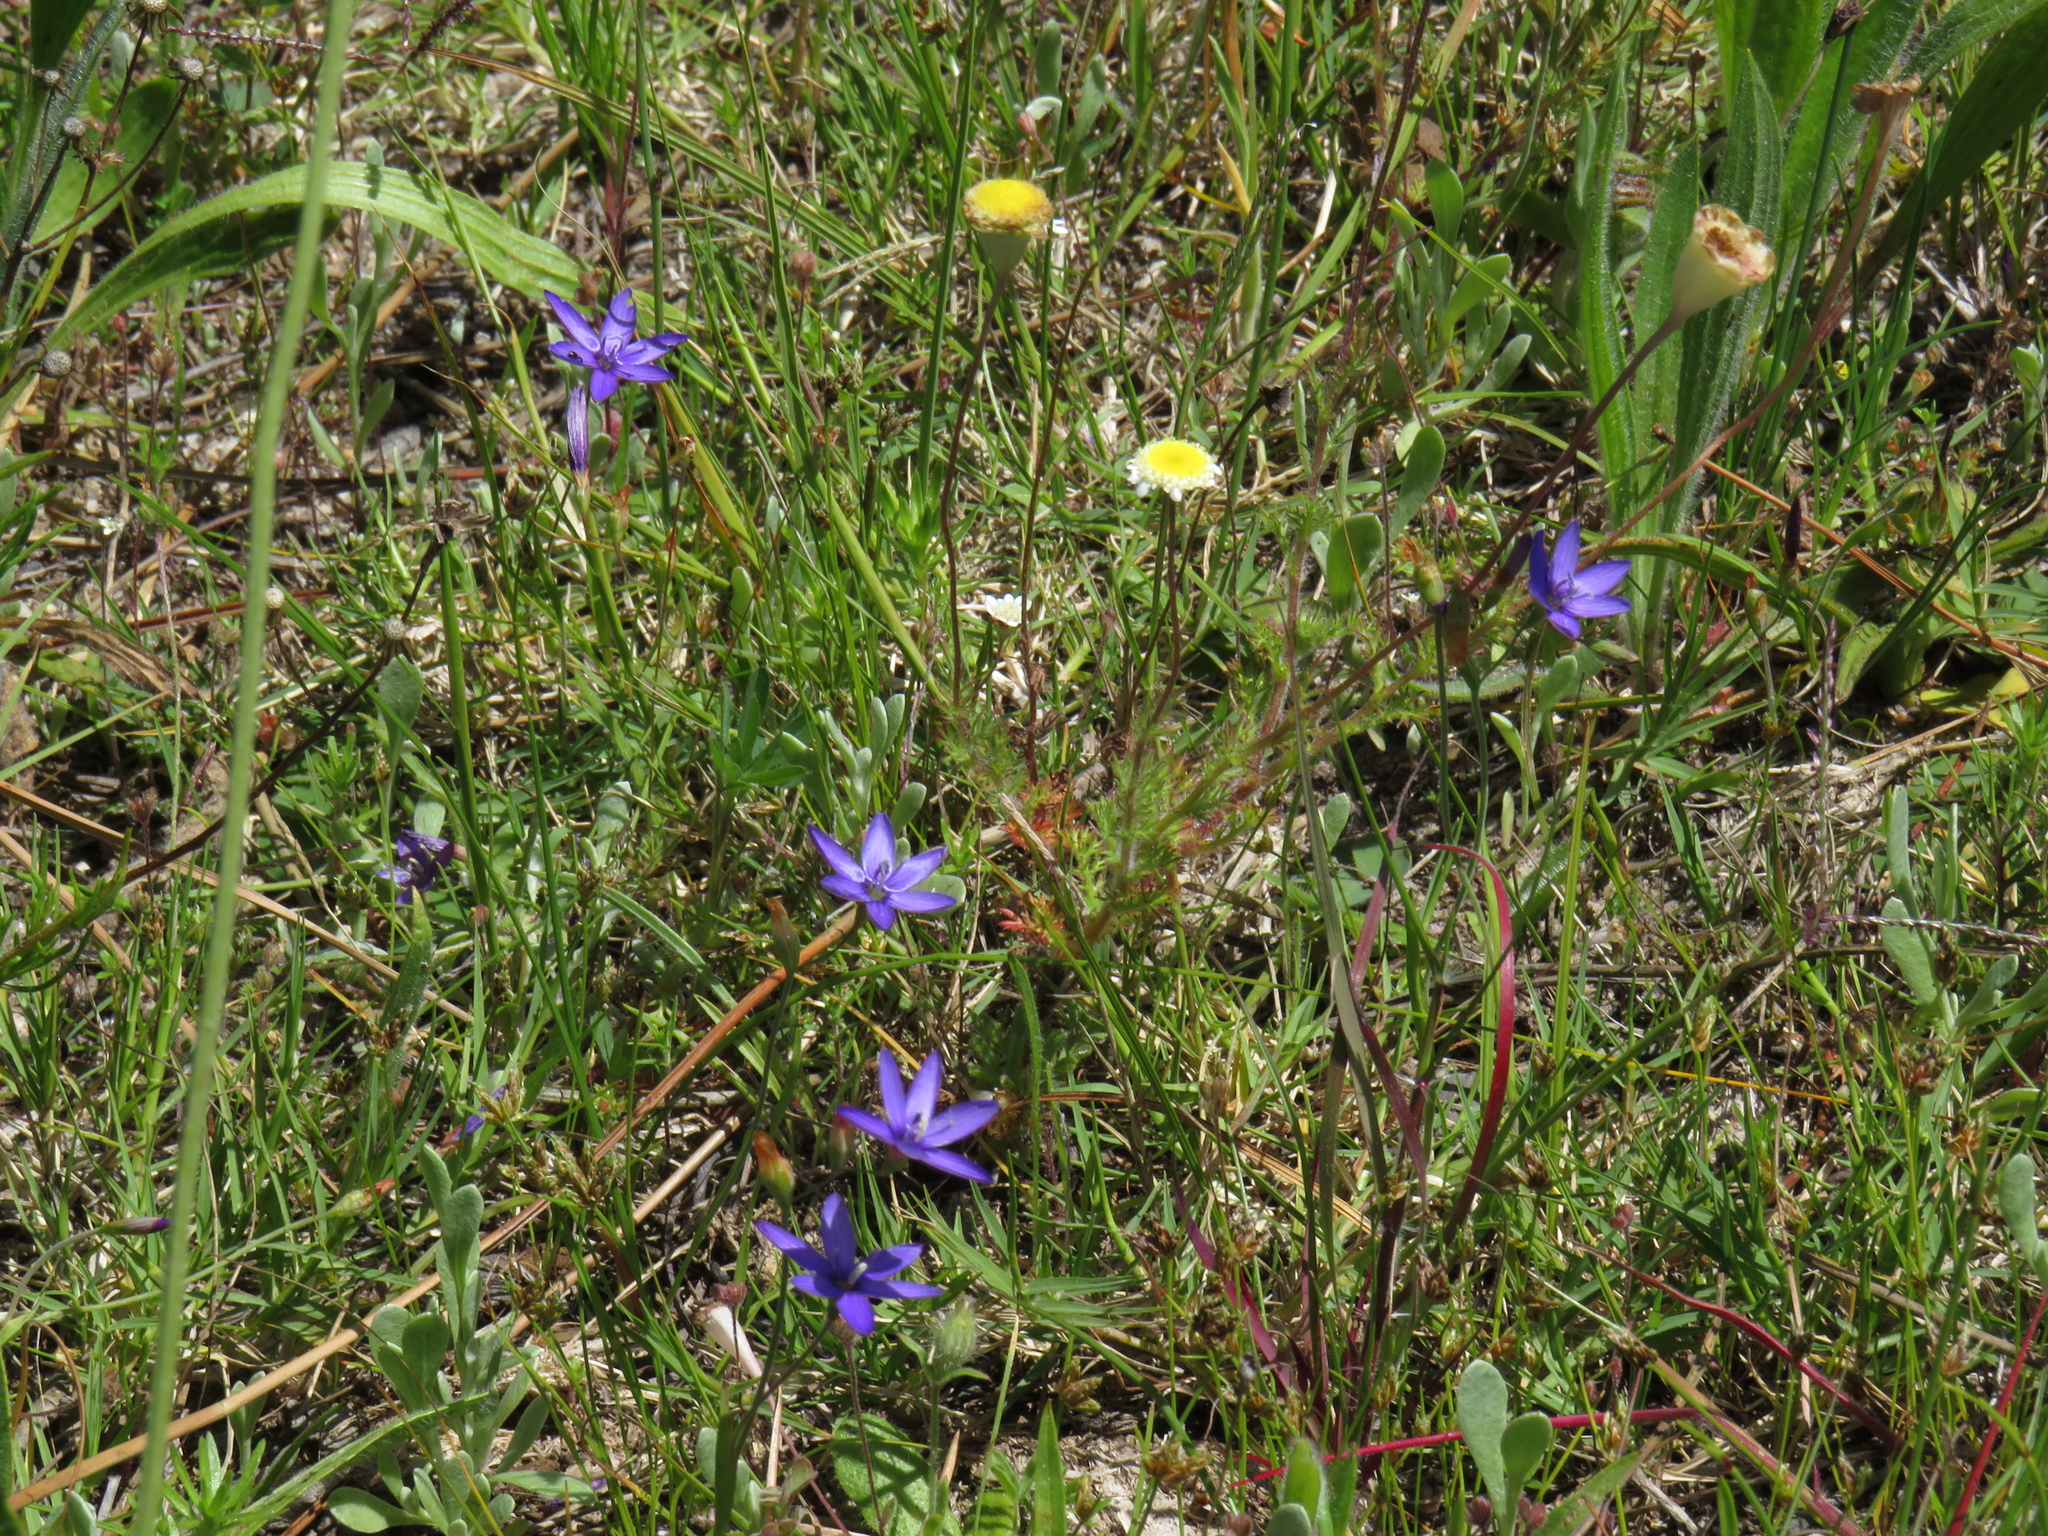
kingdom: Plantae
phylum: Tracheophyta
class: Liliopsida
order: Asparagales
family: Iridaceae
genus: Geissorhiza
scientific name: Geissorhiza aspera
